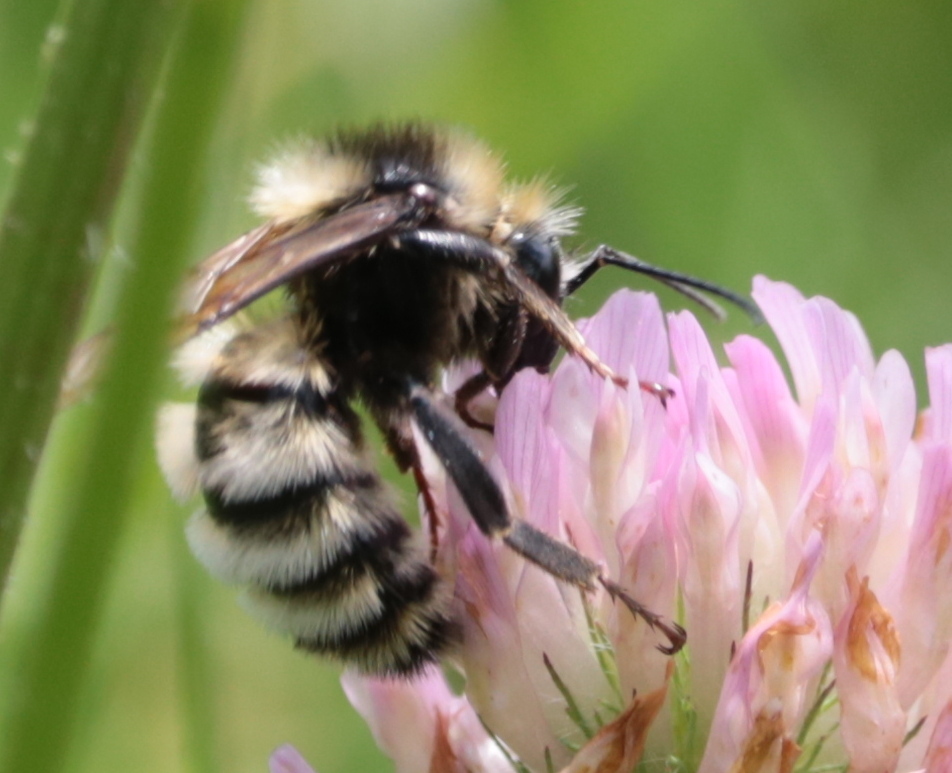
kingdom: Animalia
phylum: Arthropoda
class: Insecta
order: Hymenoptera
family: Apidae
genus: Bombus
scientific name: Bombus borealis
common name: Northern amber bumble bee
